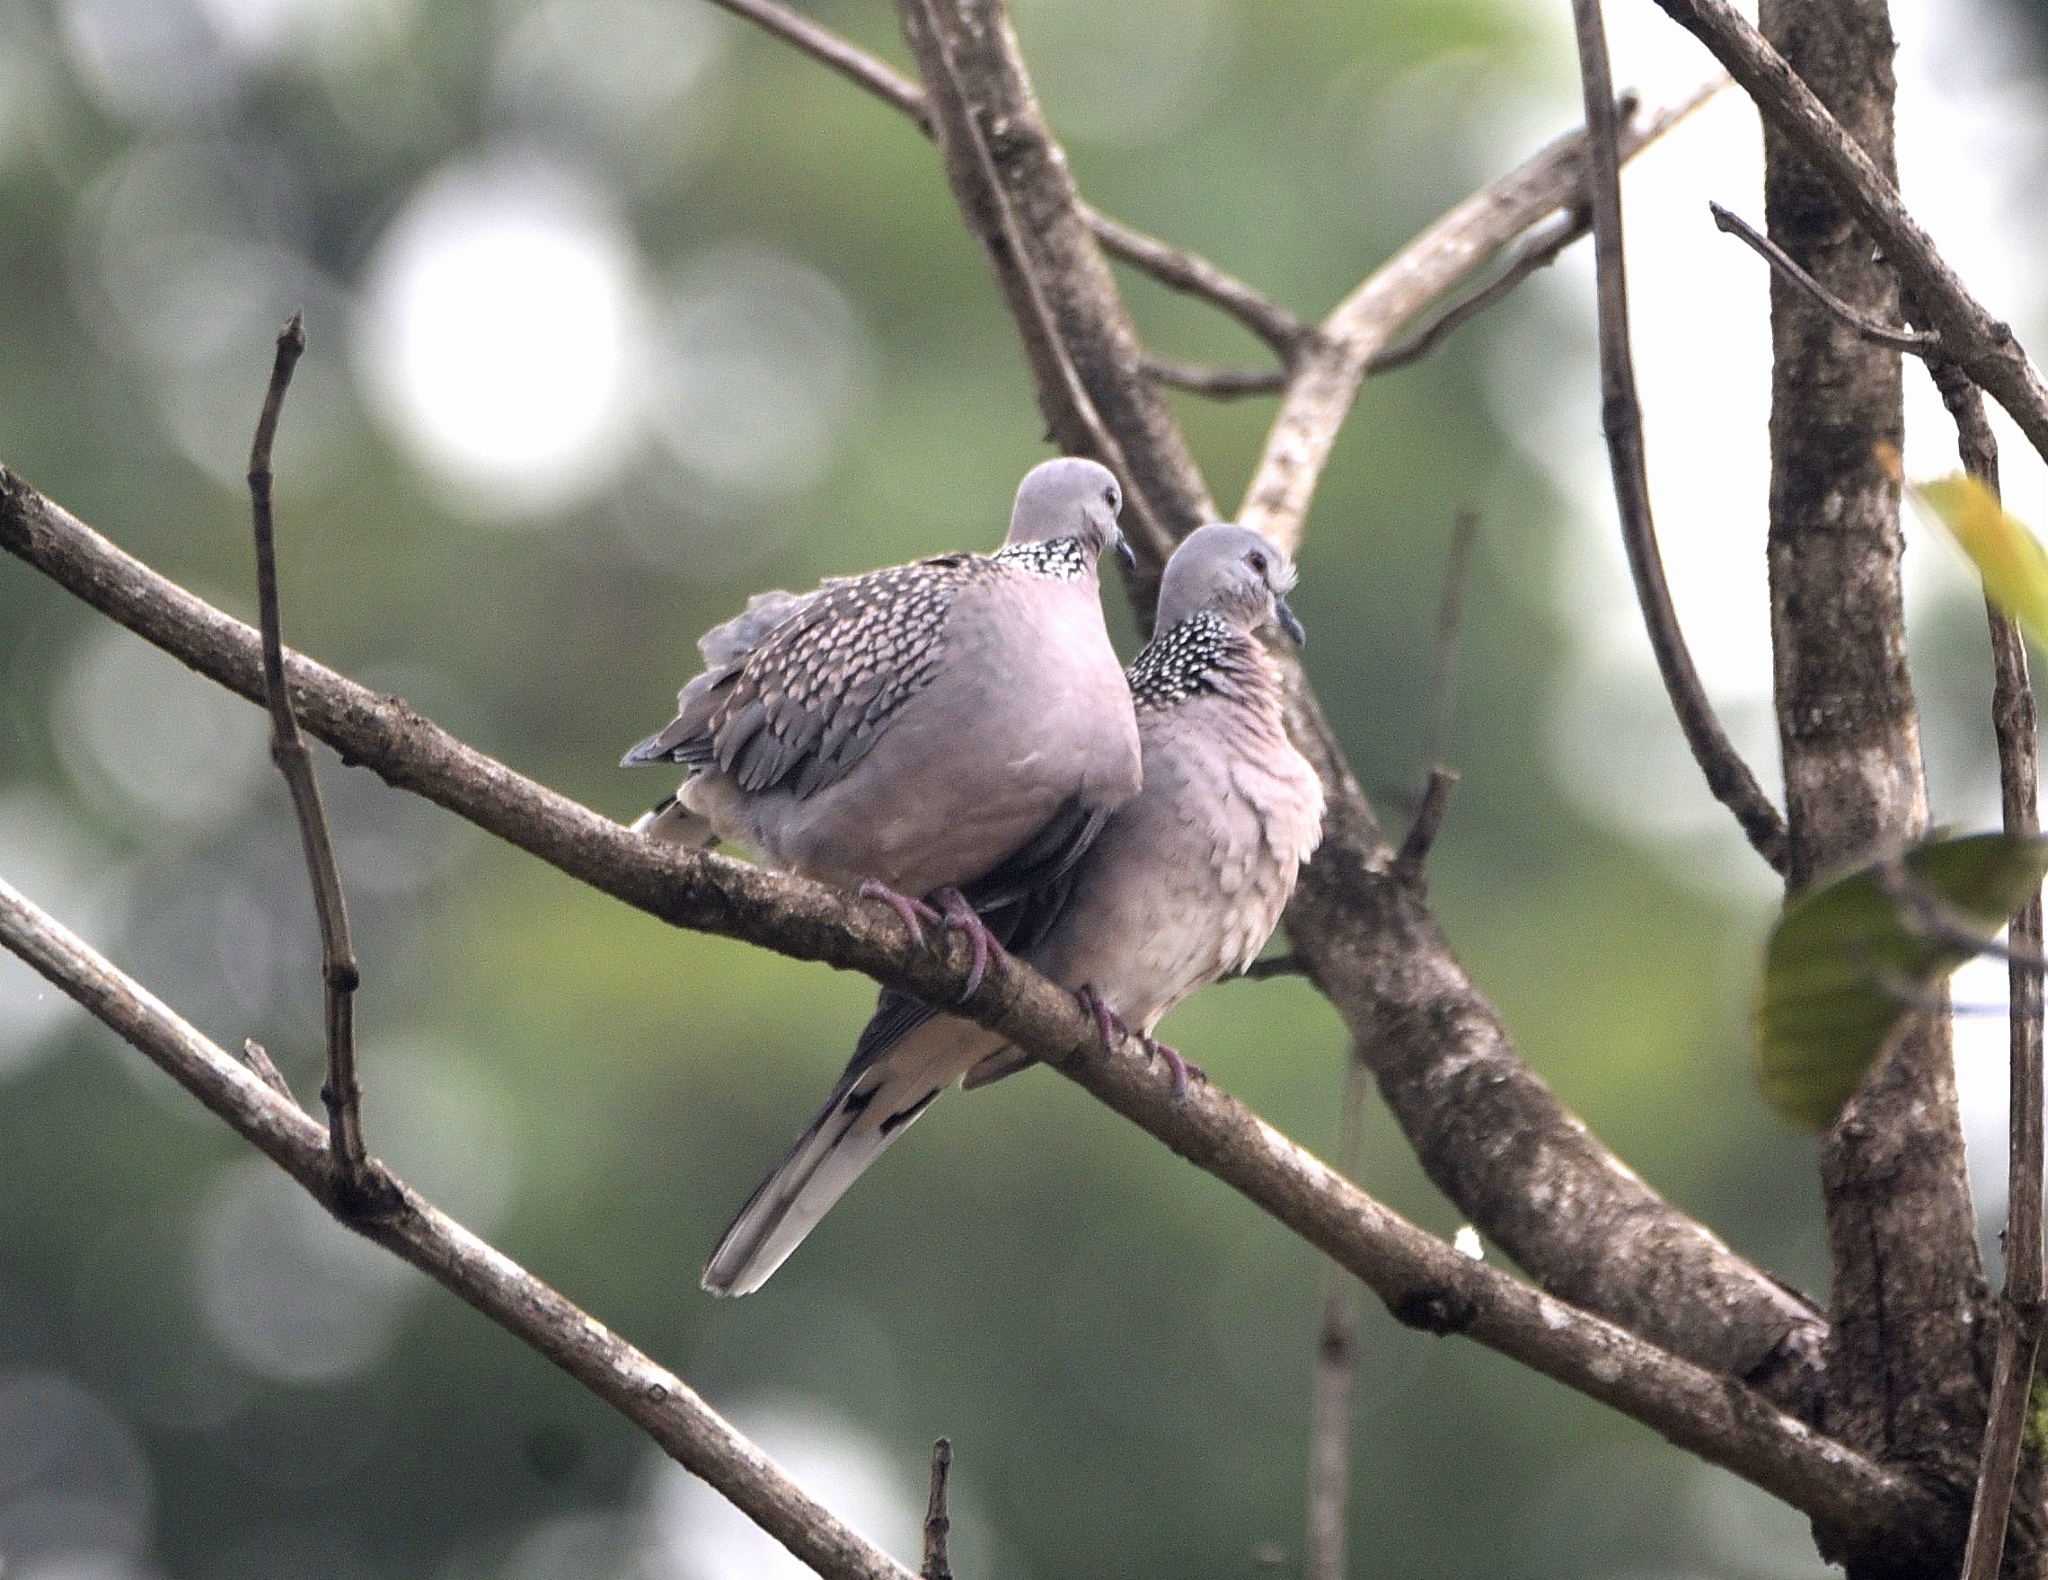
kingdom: Animalia
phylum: Chordata
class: Aves
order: Columbiformes
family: Columbidae
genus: Spilopelia
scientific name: Spilopelia chinensis
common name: Spotted dove
